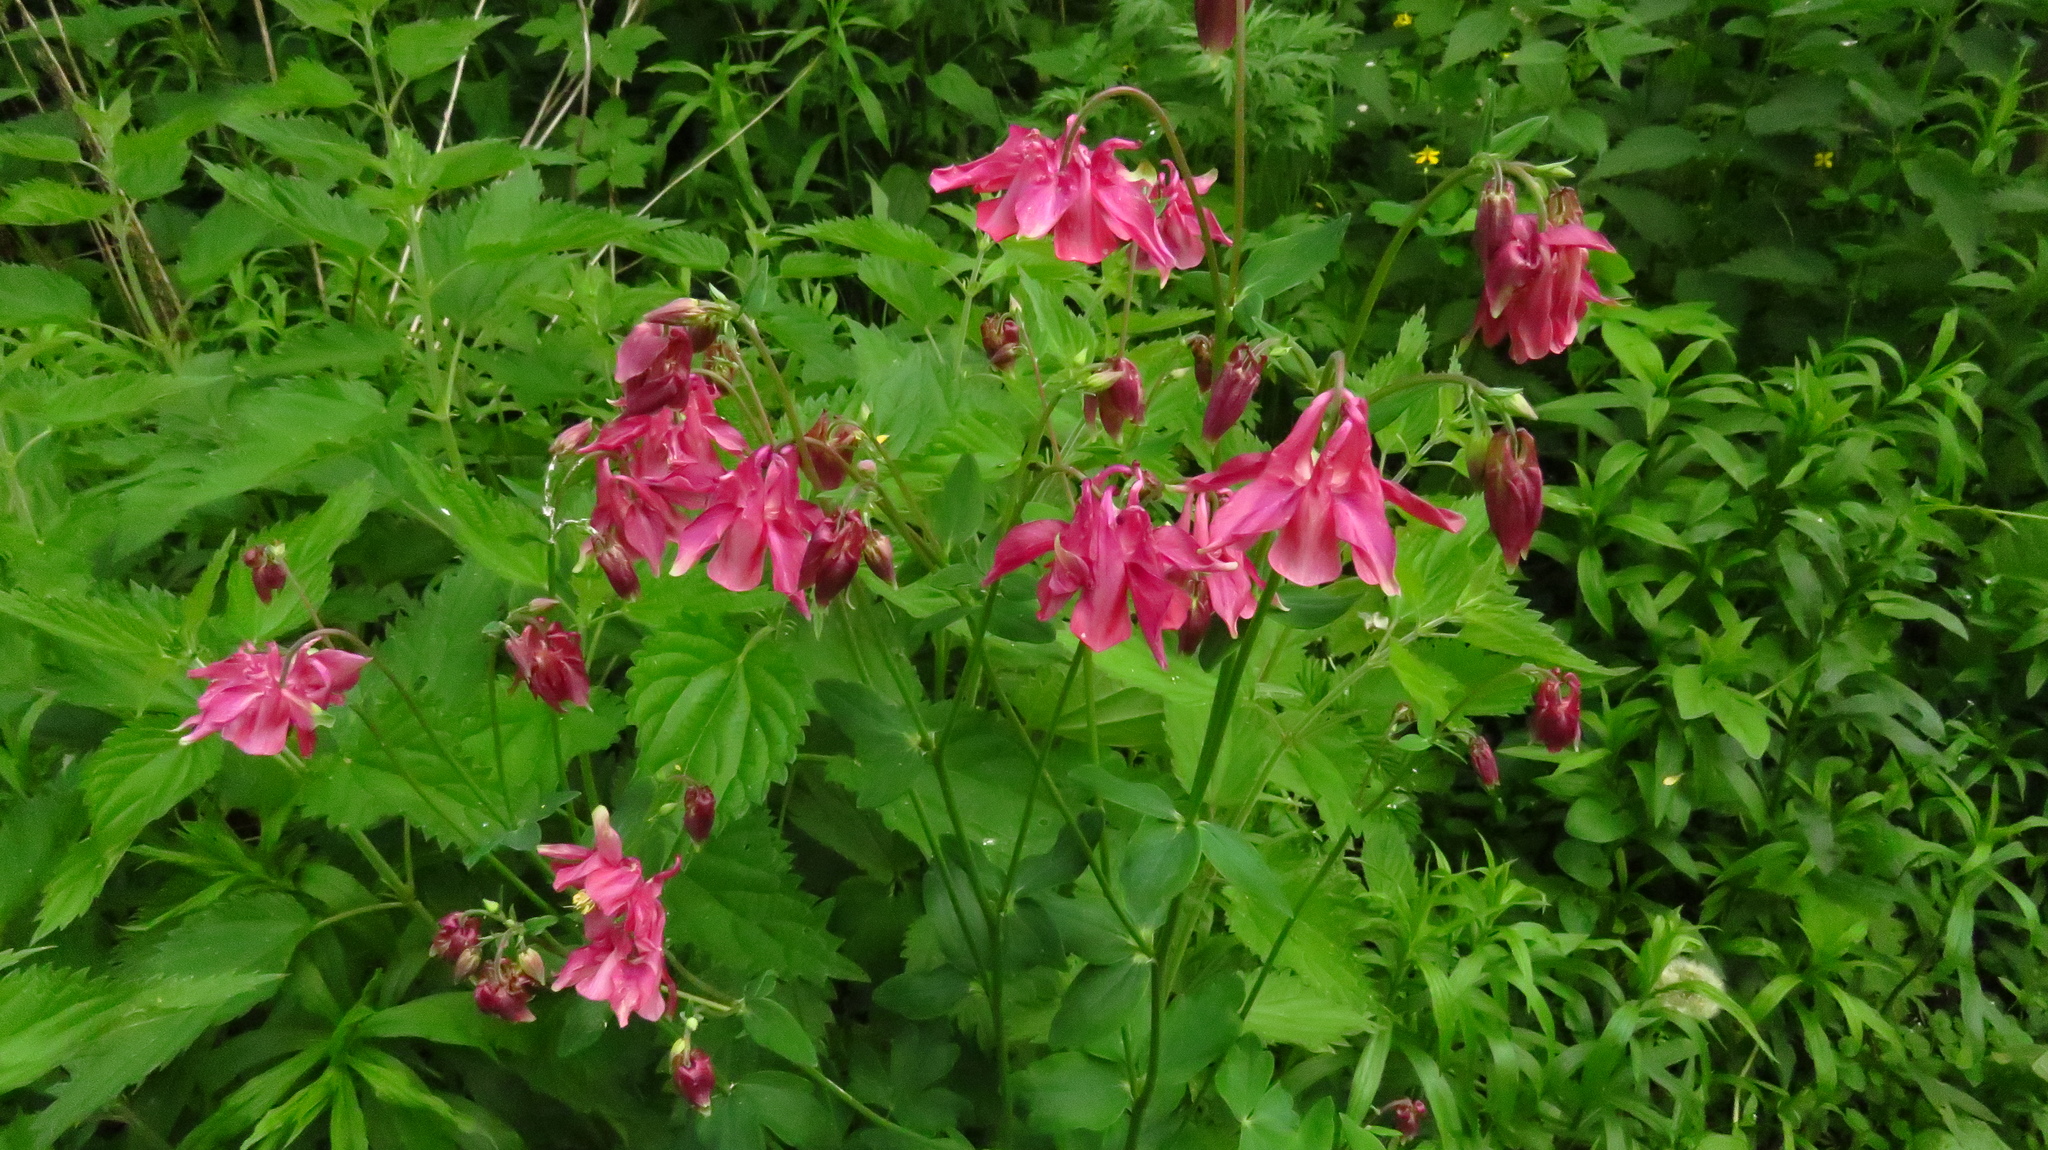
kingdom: Plantae
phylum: Tracheophyta
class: Magnoliopsida
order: Ranunculales
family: Ranunculaceae
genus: Aquilegia
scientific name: Aquilegia vulgaris
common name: Columbine
